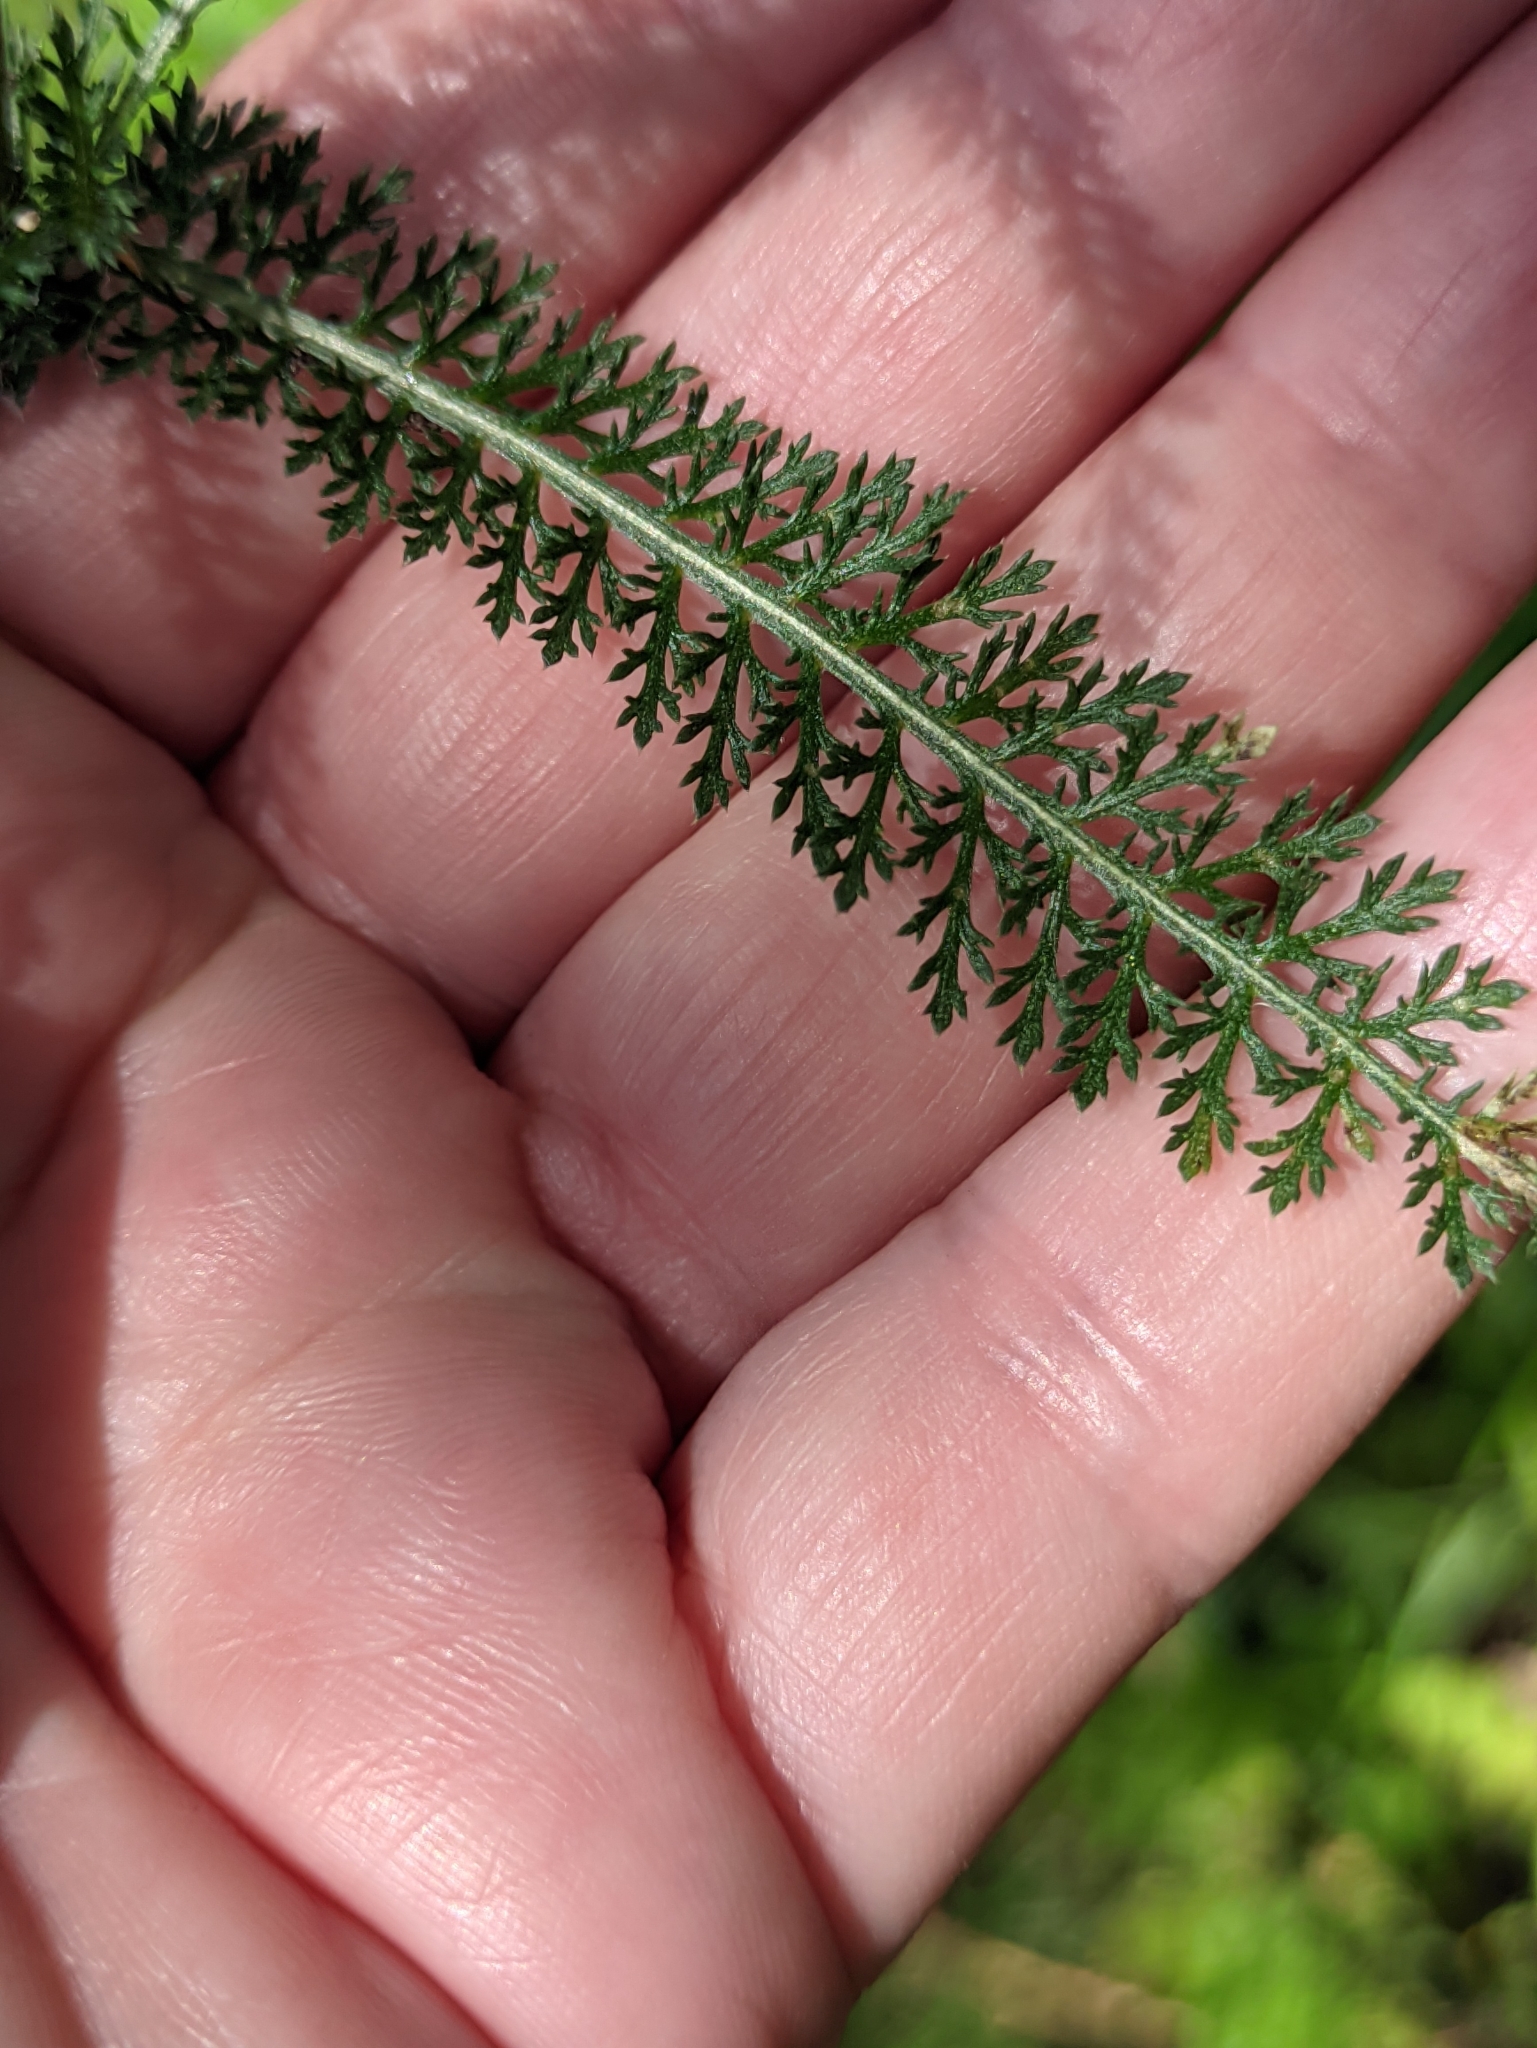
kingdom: Plantae
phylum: Tracheophyta
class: Magnoliopsida
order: Asterales
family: Asteraceae
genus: Achillea
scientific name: Achillea millefolium
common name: Yarrow
